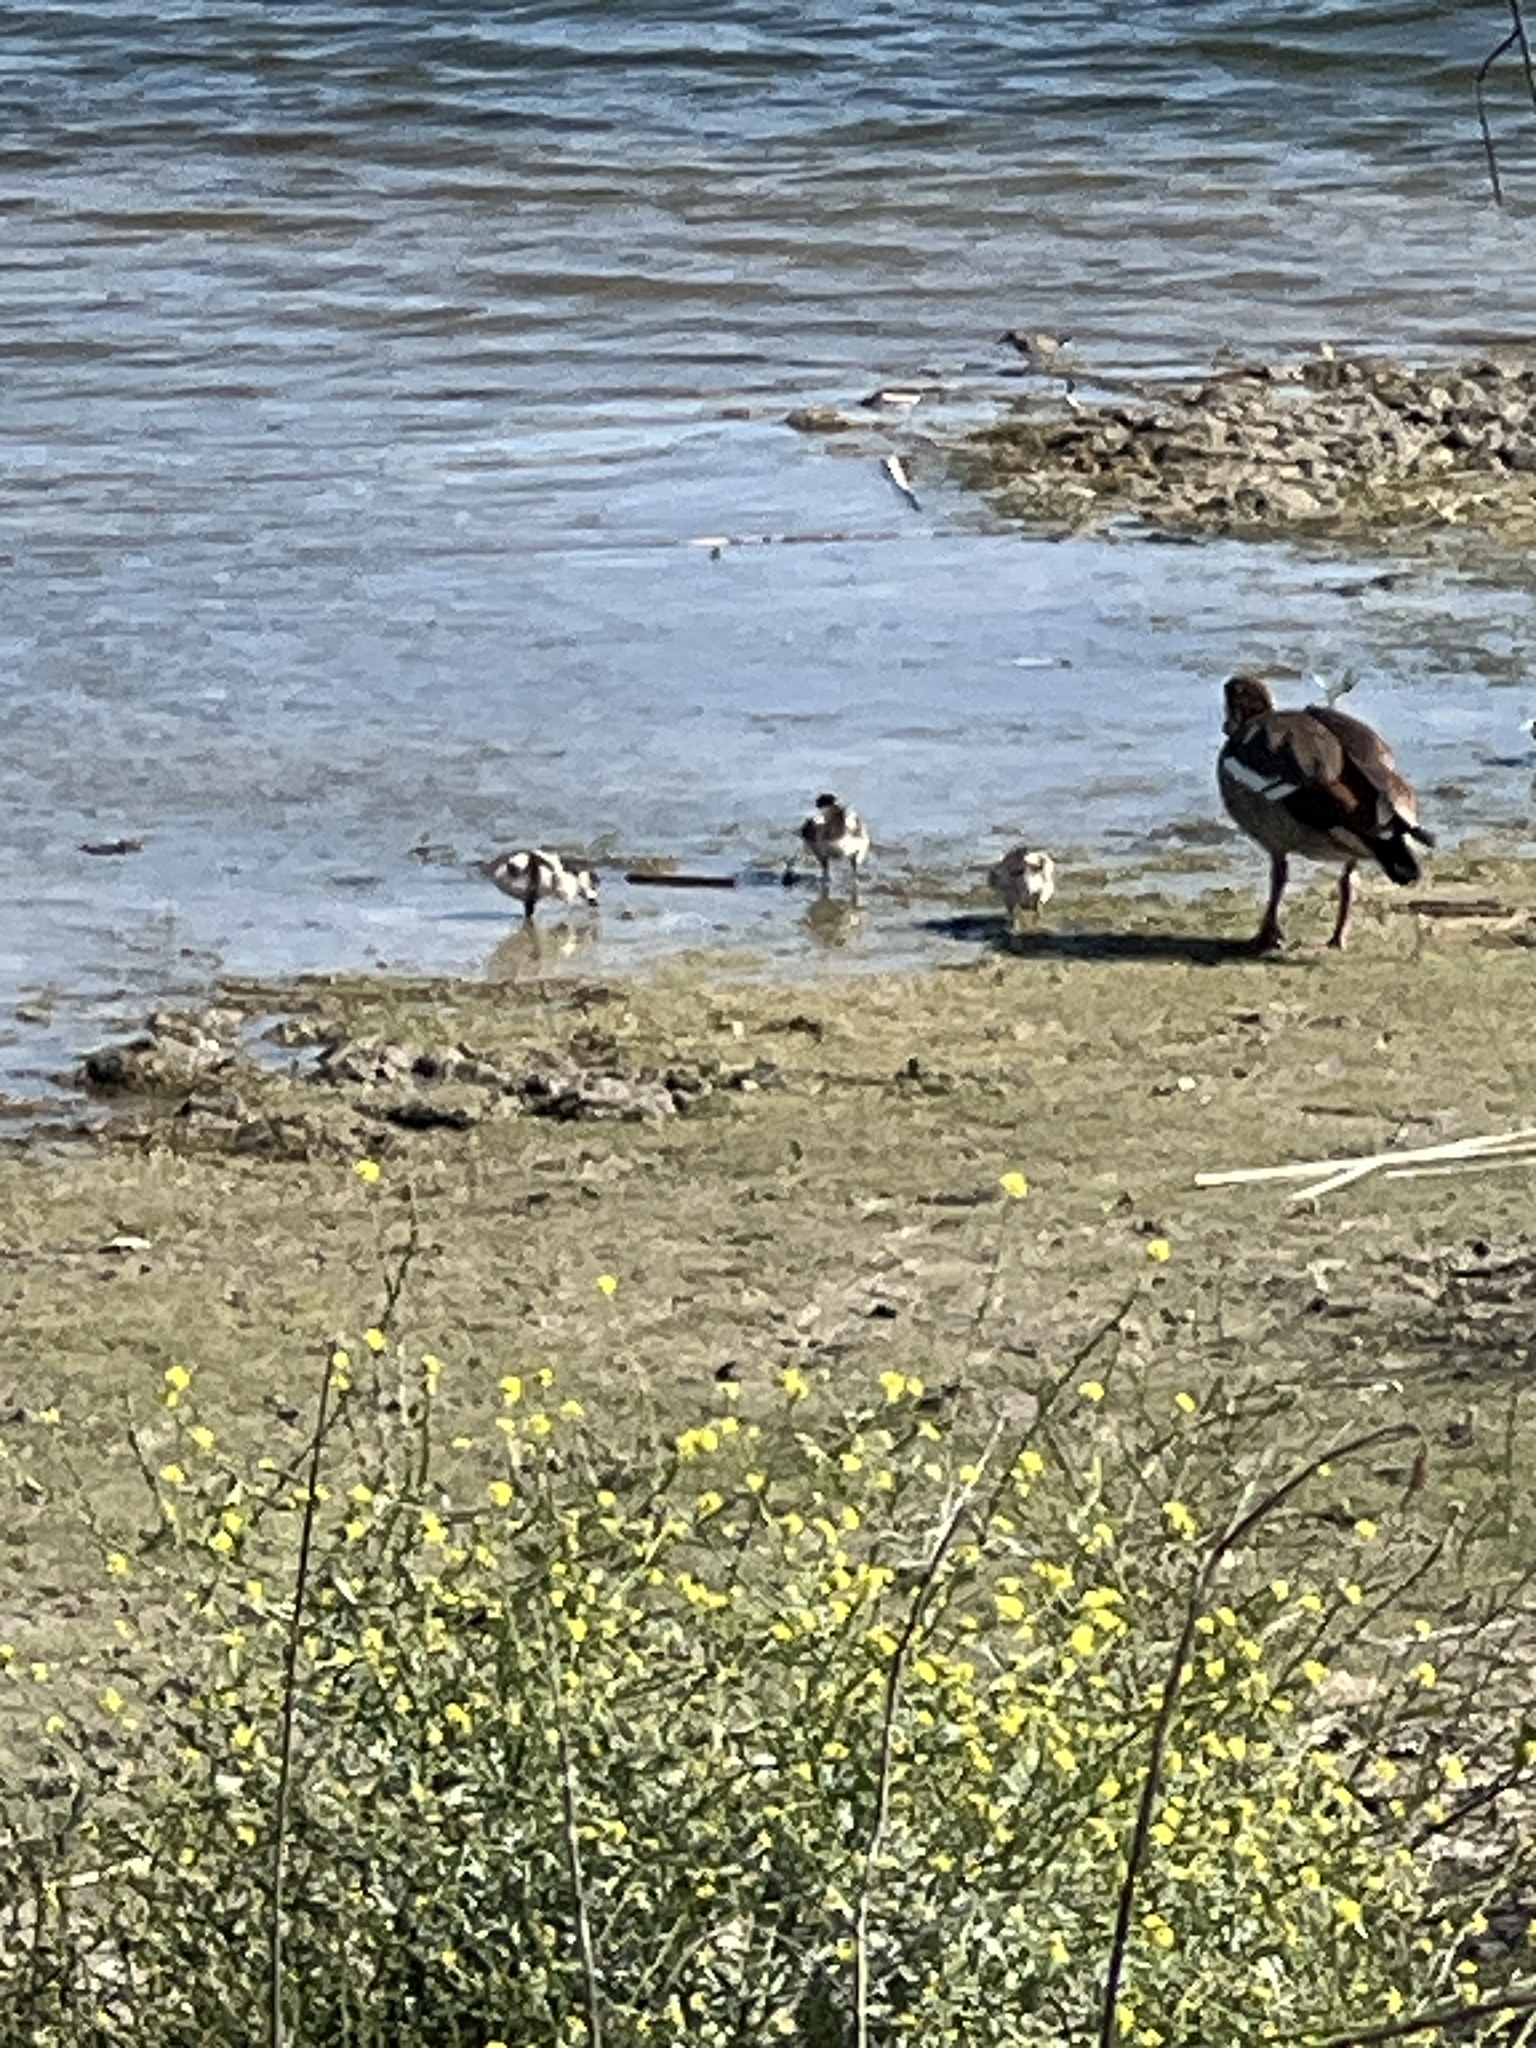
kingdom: Animalia
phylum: Chordata
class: Aves
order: Anseriformes
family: Anatidae
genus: Alopochen
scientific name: Alopochen aegyptiaca
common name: Egyptian goose
